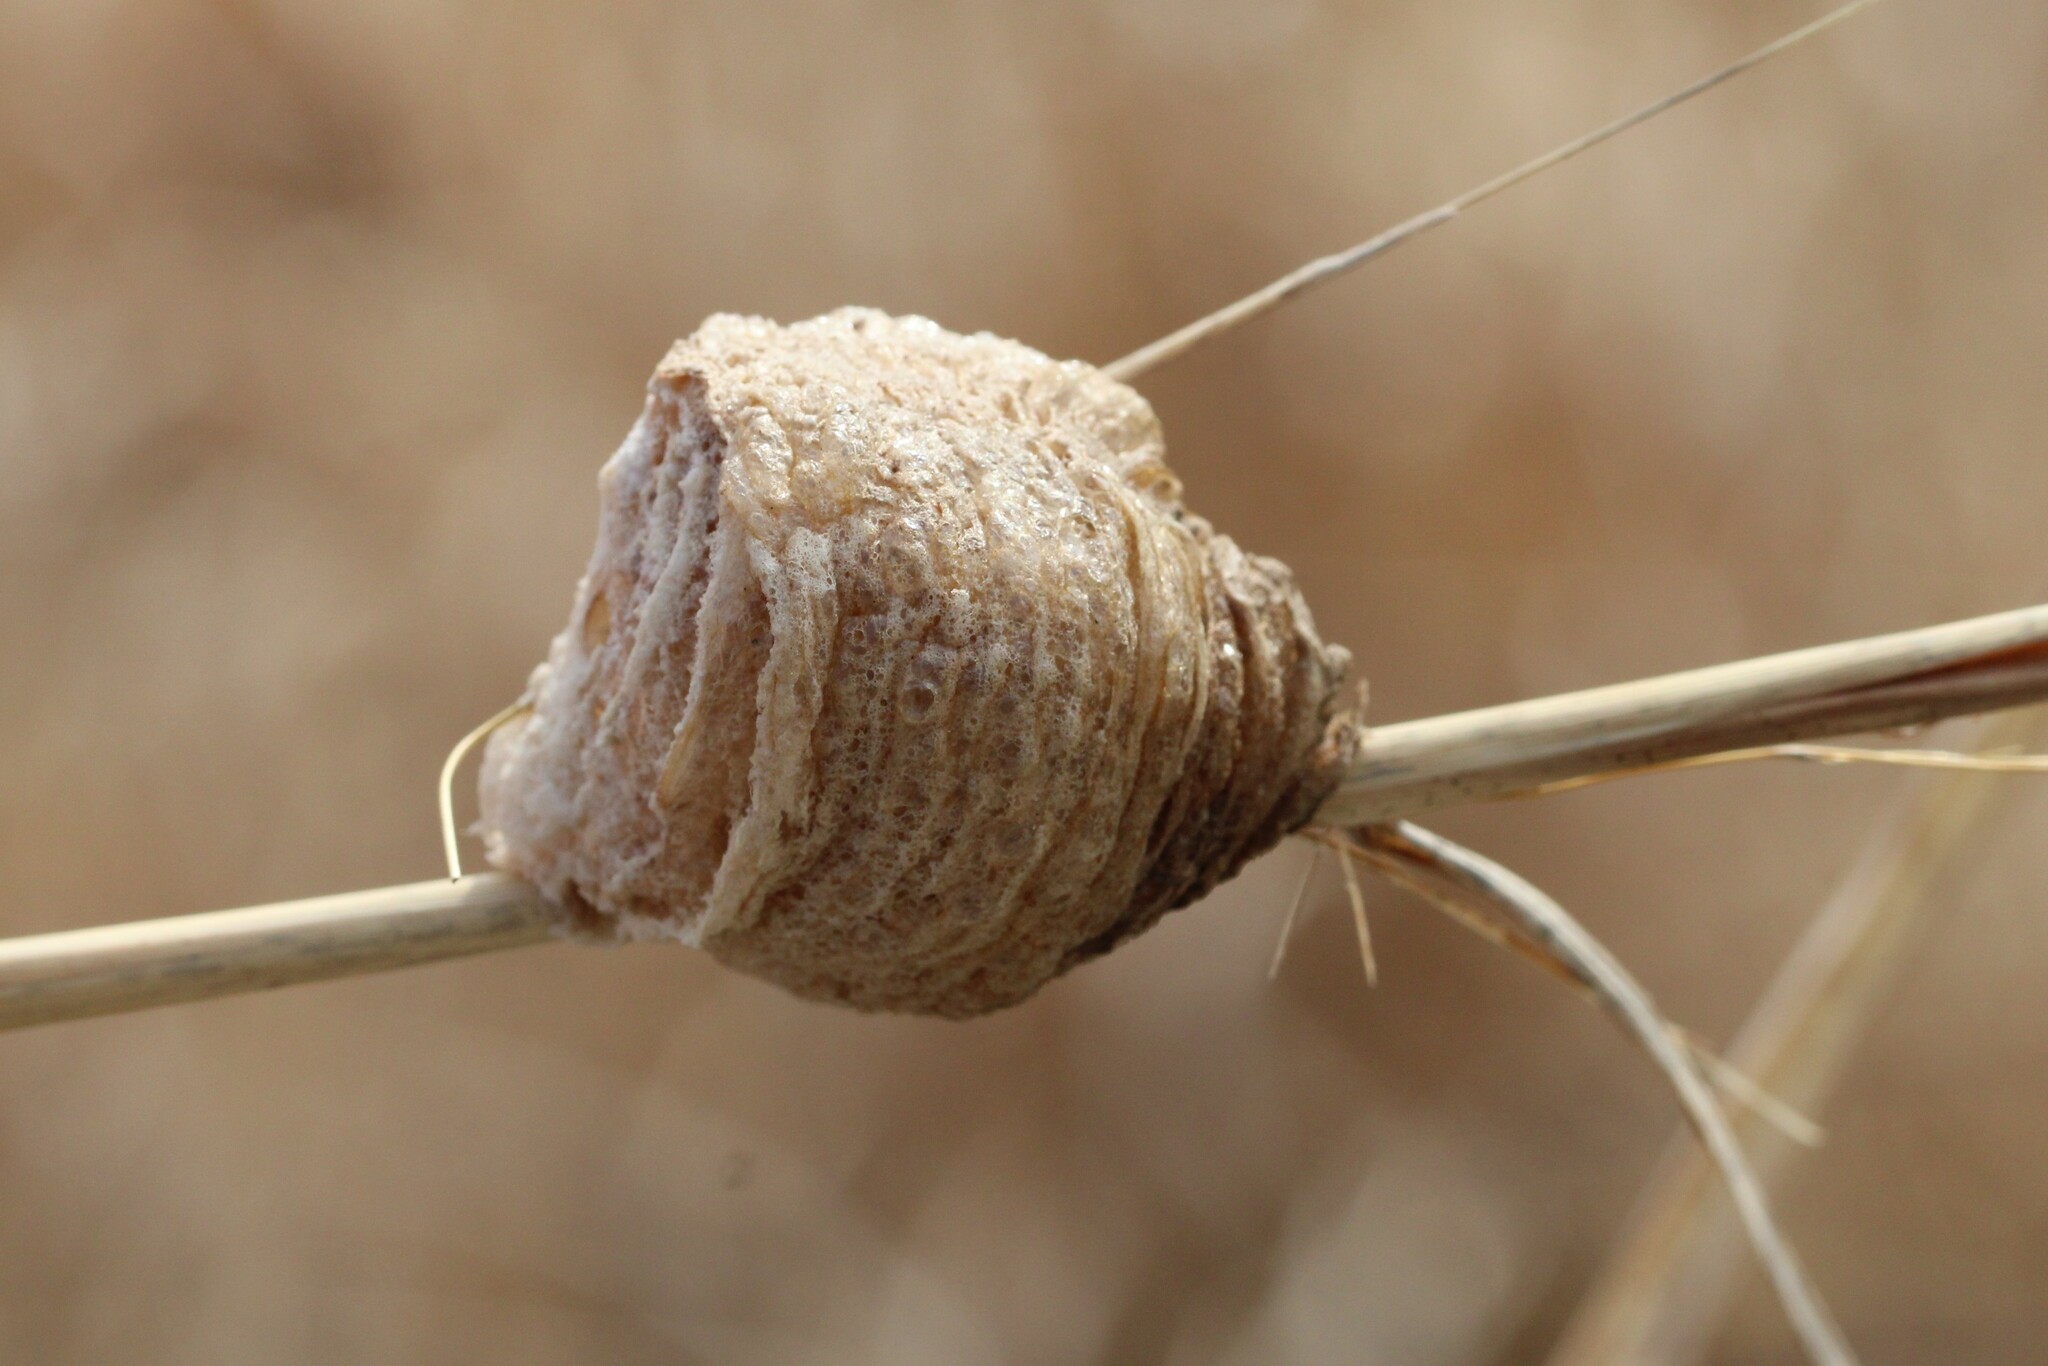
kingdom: Animalia
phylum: Arthropoda
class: Insecta
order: Mantodea
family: Mantidae
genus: Tenodera
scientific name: Tenodera sinensis
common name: Chinese mantis
